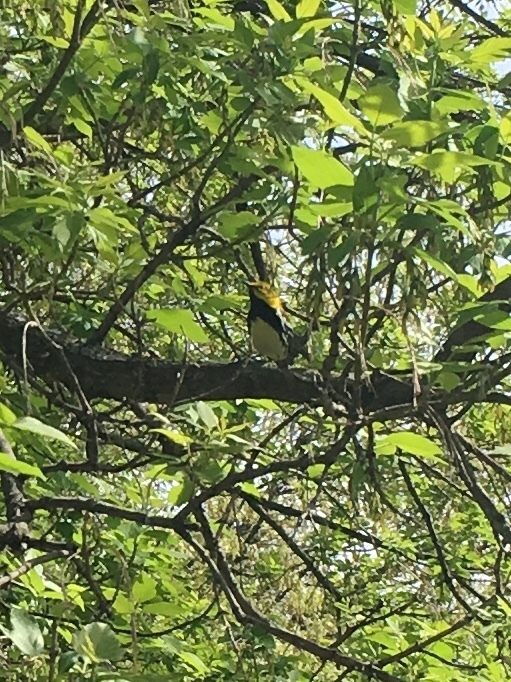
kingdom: Animalia
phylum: Chordata
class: Aves
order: Passeriformes
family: Parulidae
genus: Setophaga
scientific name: Setophaga virens
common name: Black-throated green warbler
